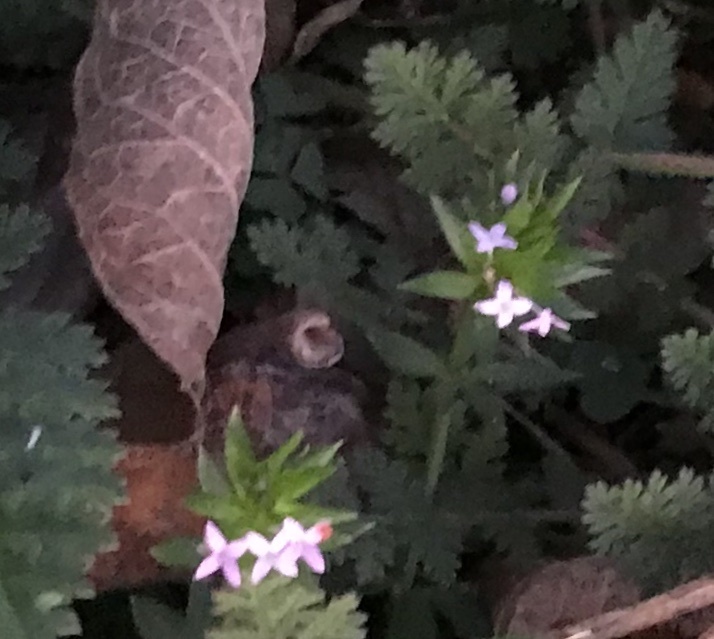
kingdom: Plantae
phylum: Tracheophyta
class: Magnoliopsida
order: Gentianales
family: Rubiaceae
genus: Sherardia
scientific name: Sherardia arvensis
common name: Field madder
